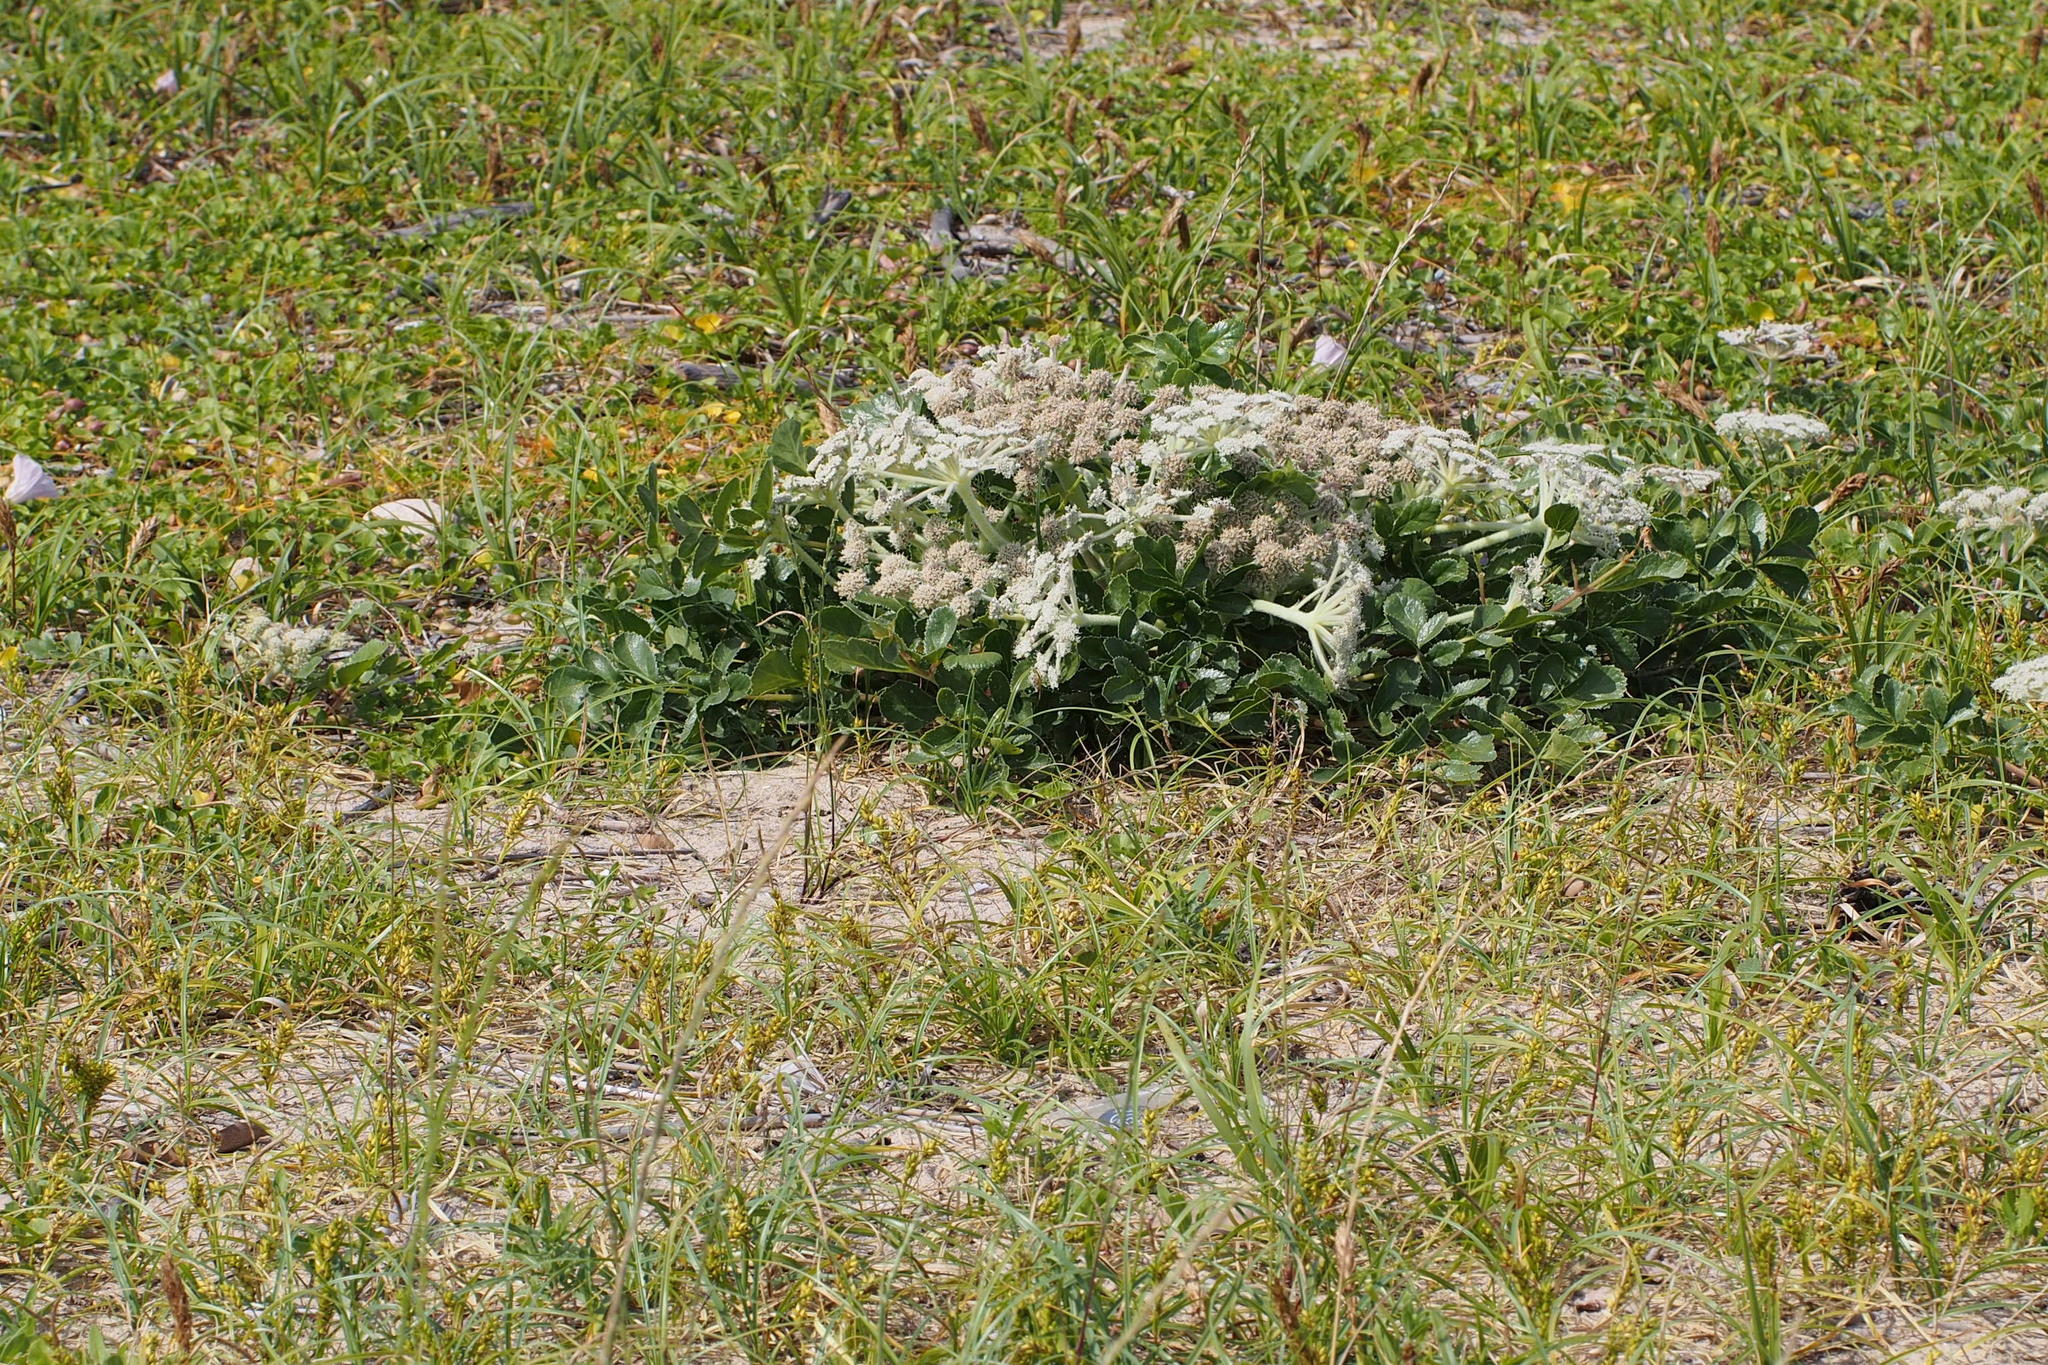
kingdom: Plantae
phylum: Tracheophyta
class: Magnoliopsida
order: Apiales
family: Apiaceae
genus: Glehnia
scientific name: Glehnia littoralis
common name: Beach silvertop
